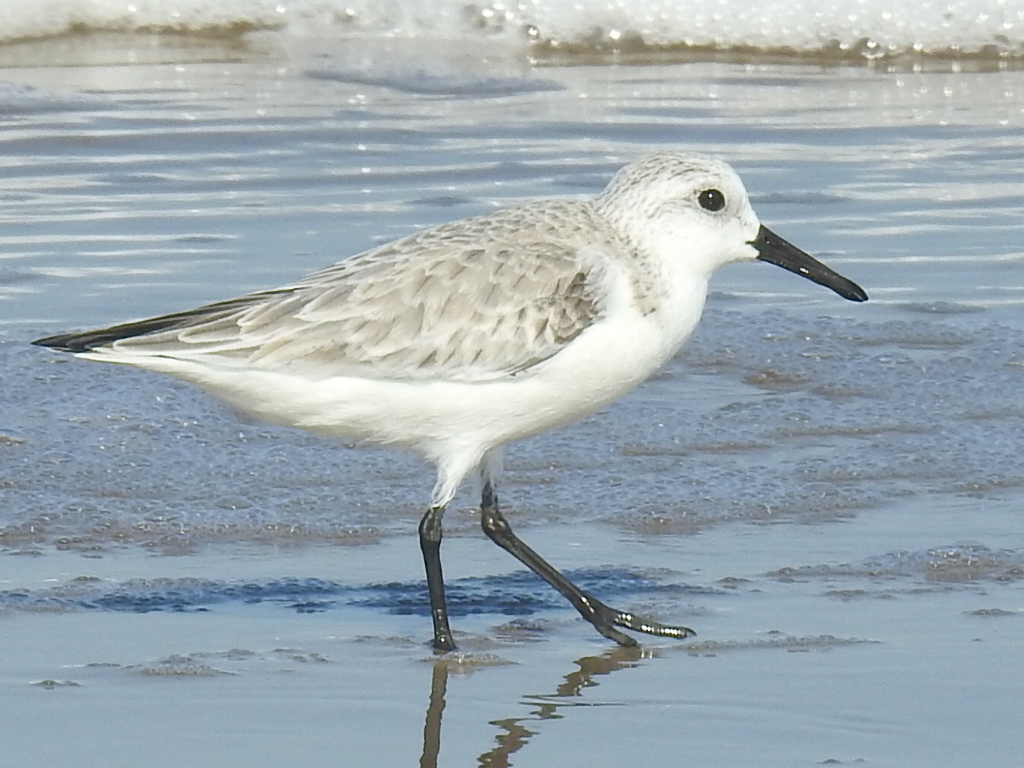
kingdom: Animalia
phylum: Chordata
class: Aves
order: Charadriiformes
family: Scolopacidae
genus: Calidris
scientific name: Calidris alba
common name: Sanderling
